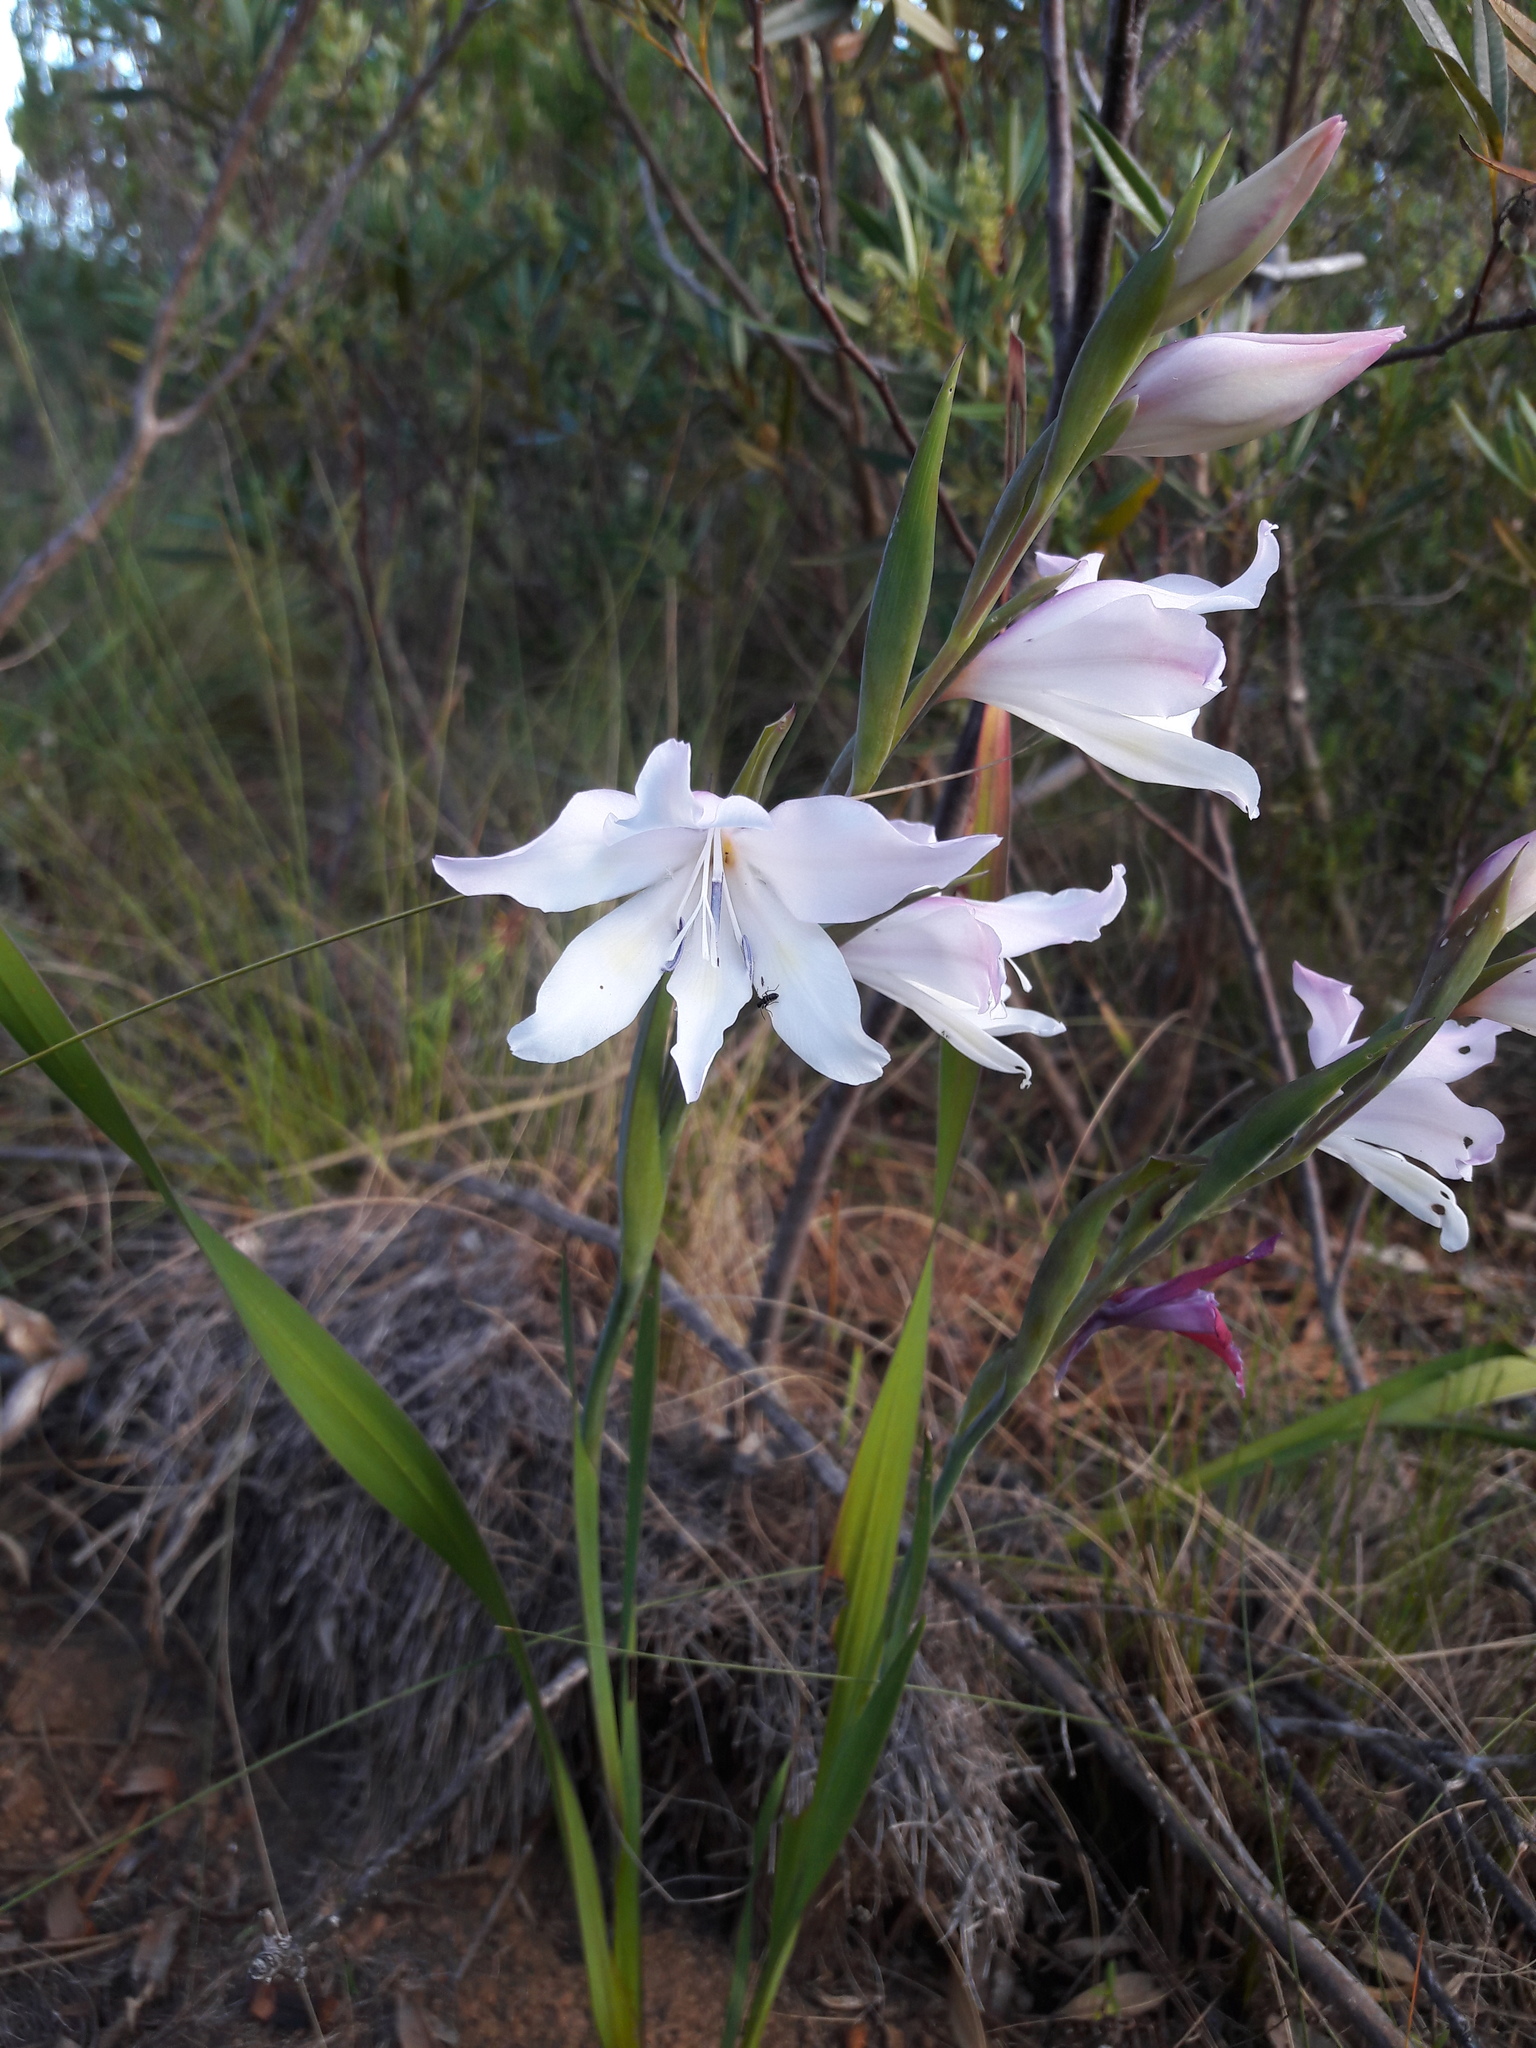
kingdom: Plantae
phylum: Tracheophyta
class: Liliopsida
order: Asparagales
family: Iridaceae
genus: Gladiolus
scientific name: Gladiolus carneus
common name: Painted-lady
